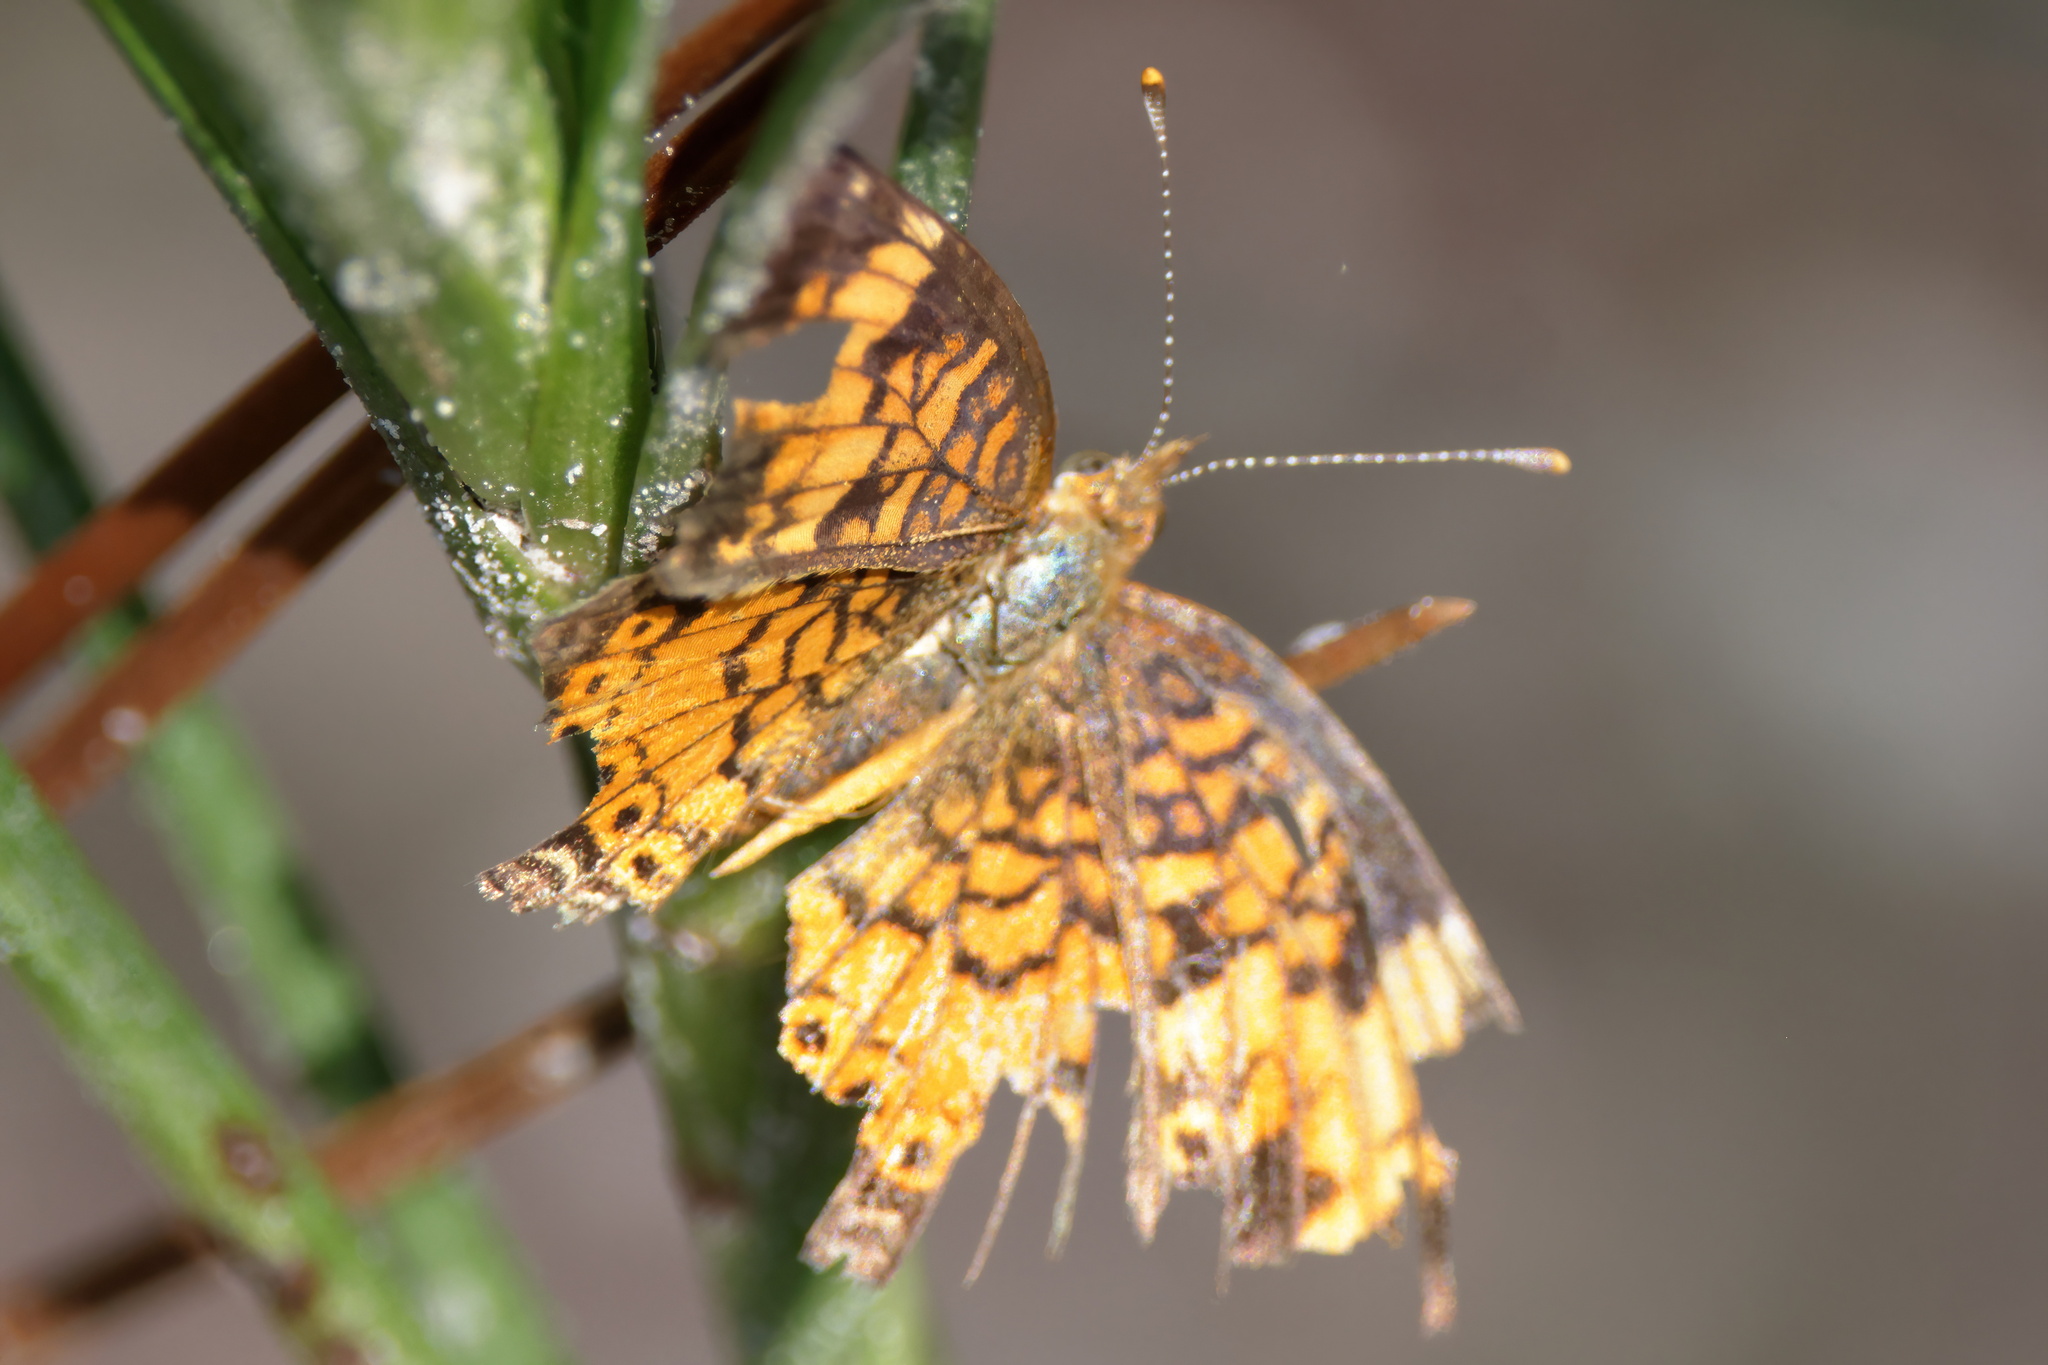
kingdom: Animalia
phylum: Arthropoda
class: Insecta
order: Lepidoptera
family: Nymphalidae
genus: Phyciodes
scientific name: Phyciodes tharos
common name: Pearl crescent
